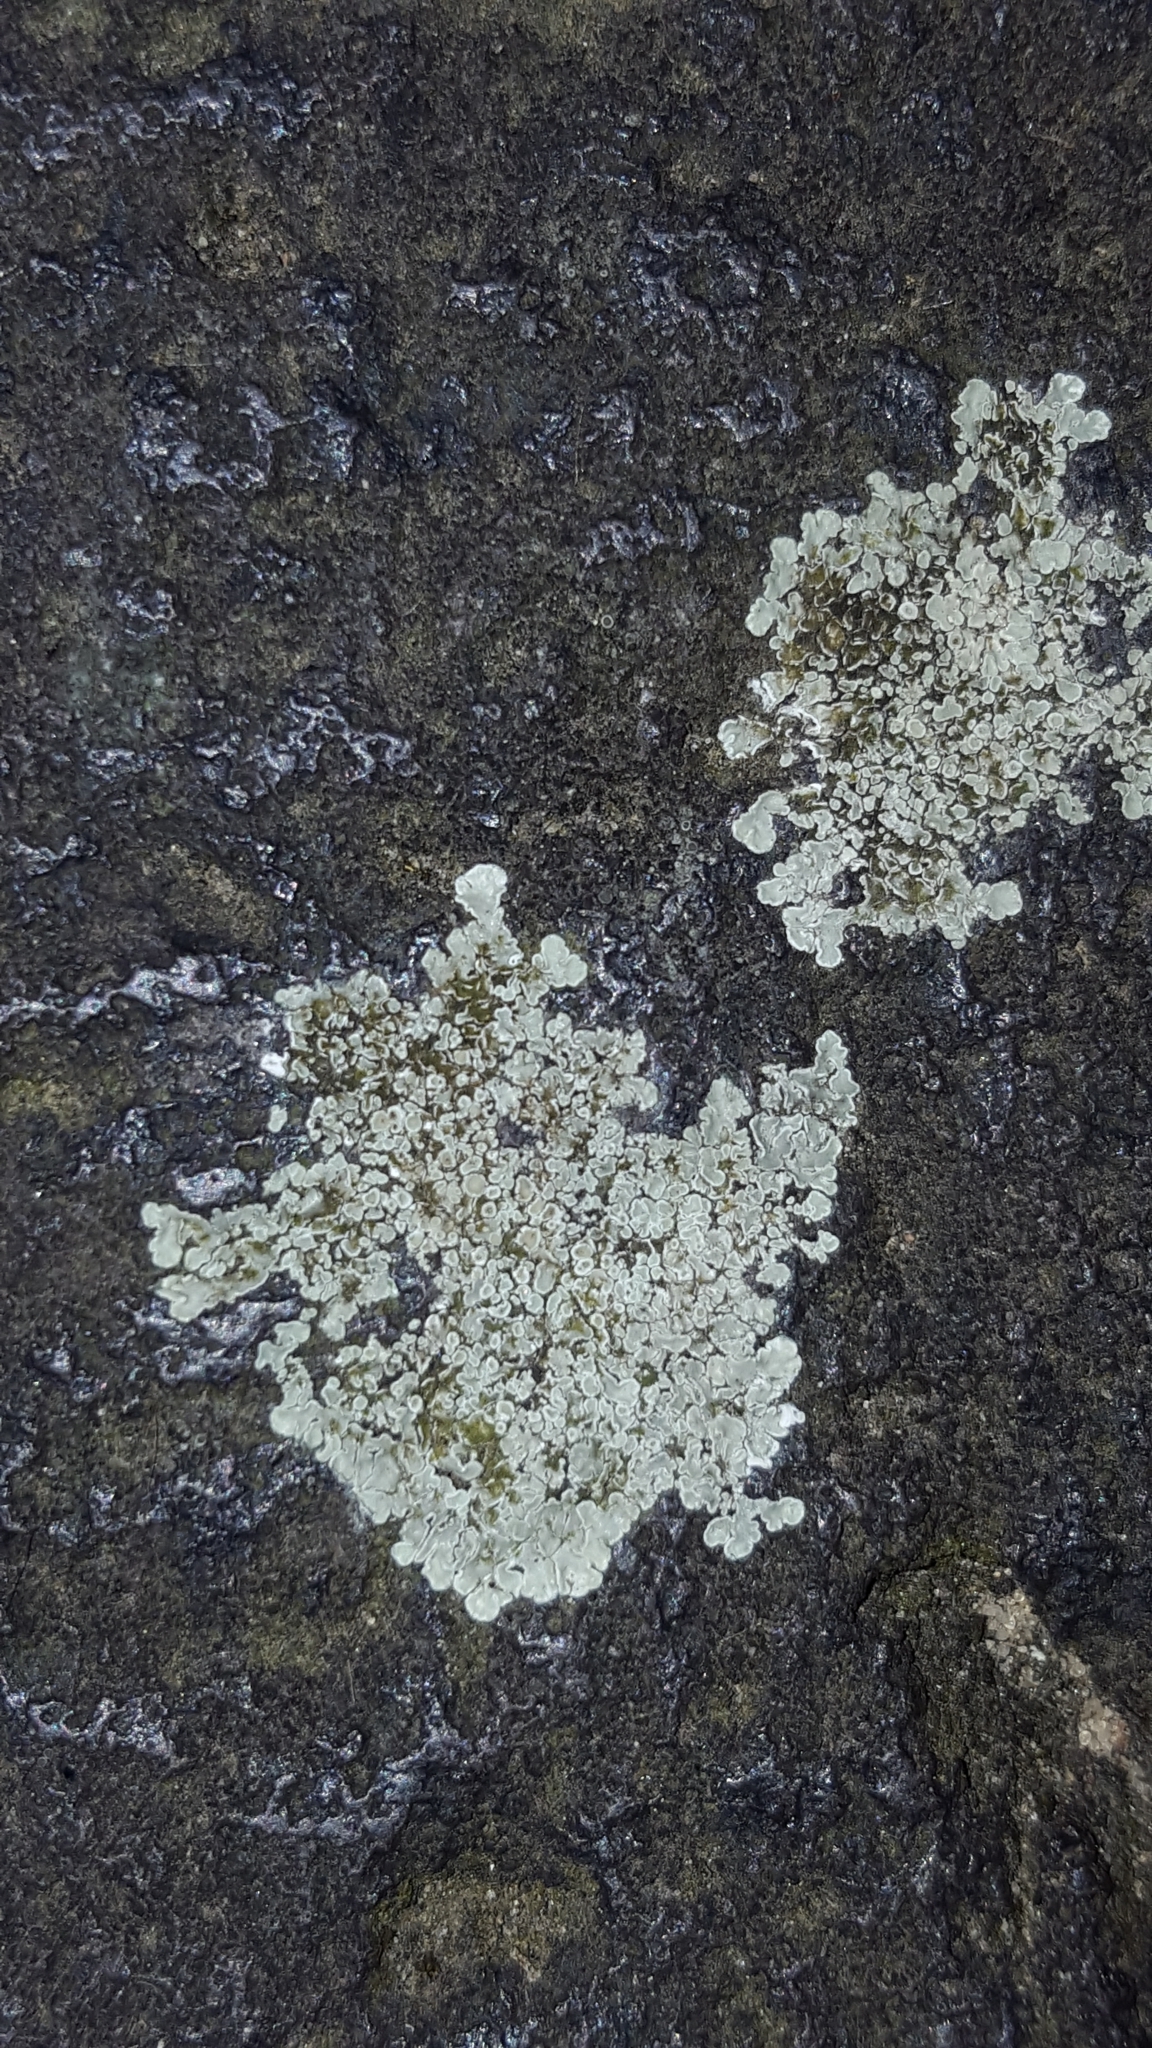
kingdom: Fungi
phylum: Ascomycota
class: Lecanoromycetes
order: Lecanorales
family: Lecanoraceae
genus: Protoparmeliopsis
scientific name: Protoparmeliopsis muralis
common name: Stonewall rim lichen
